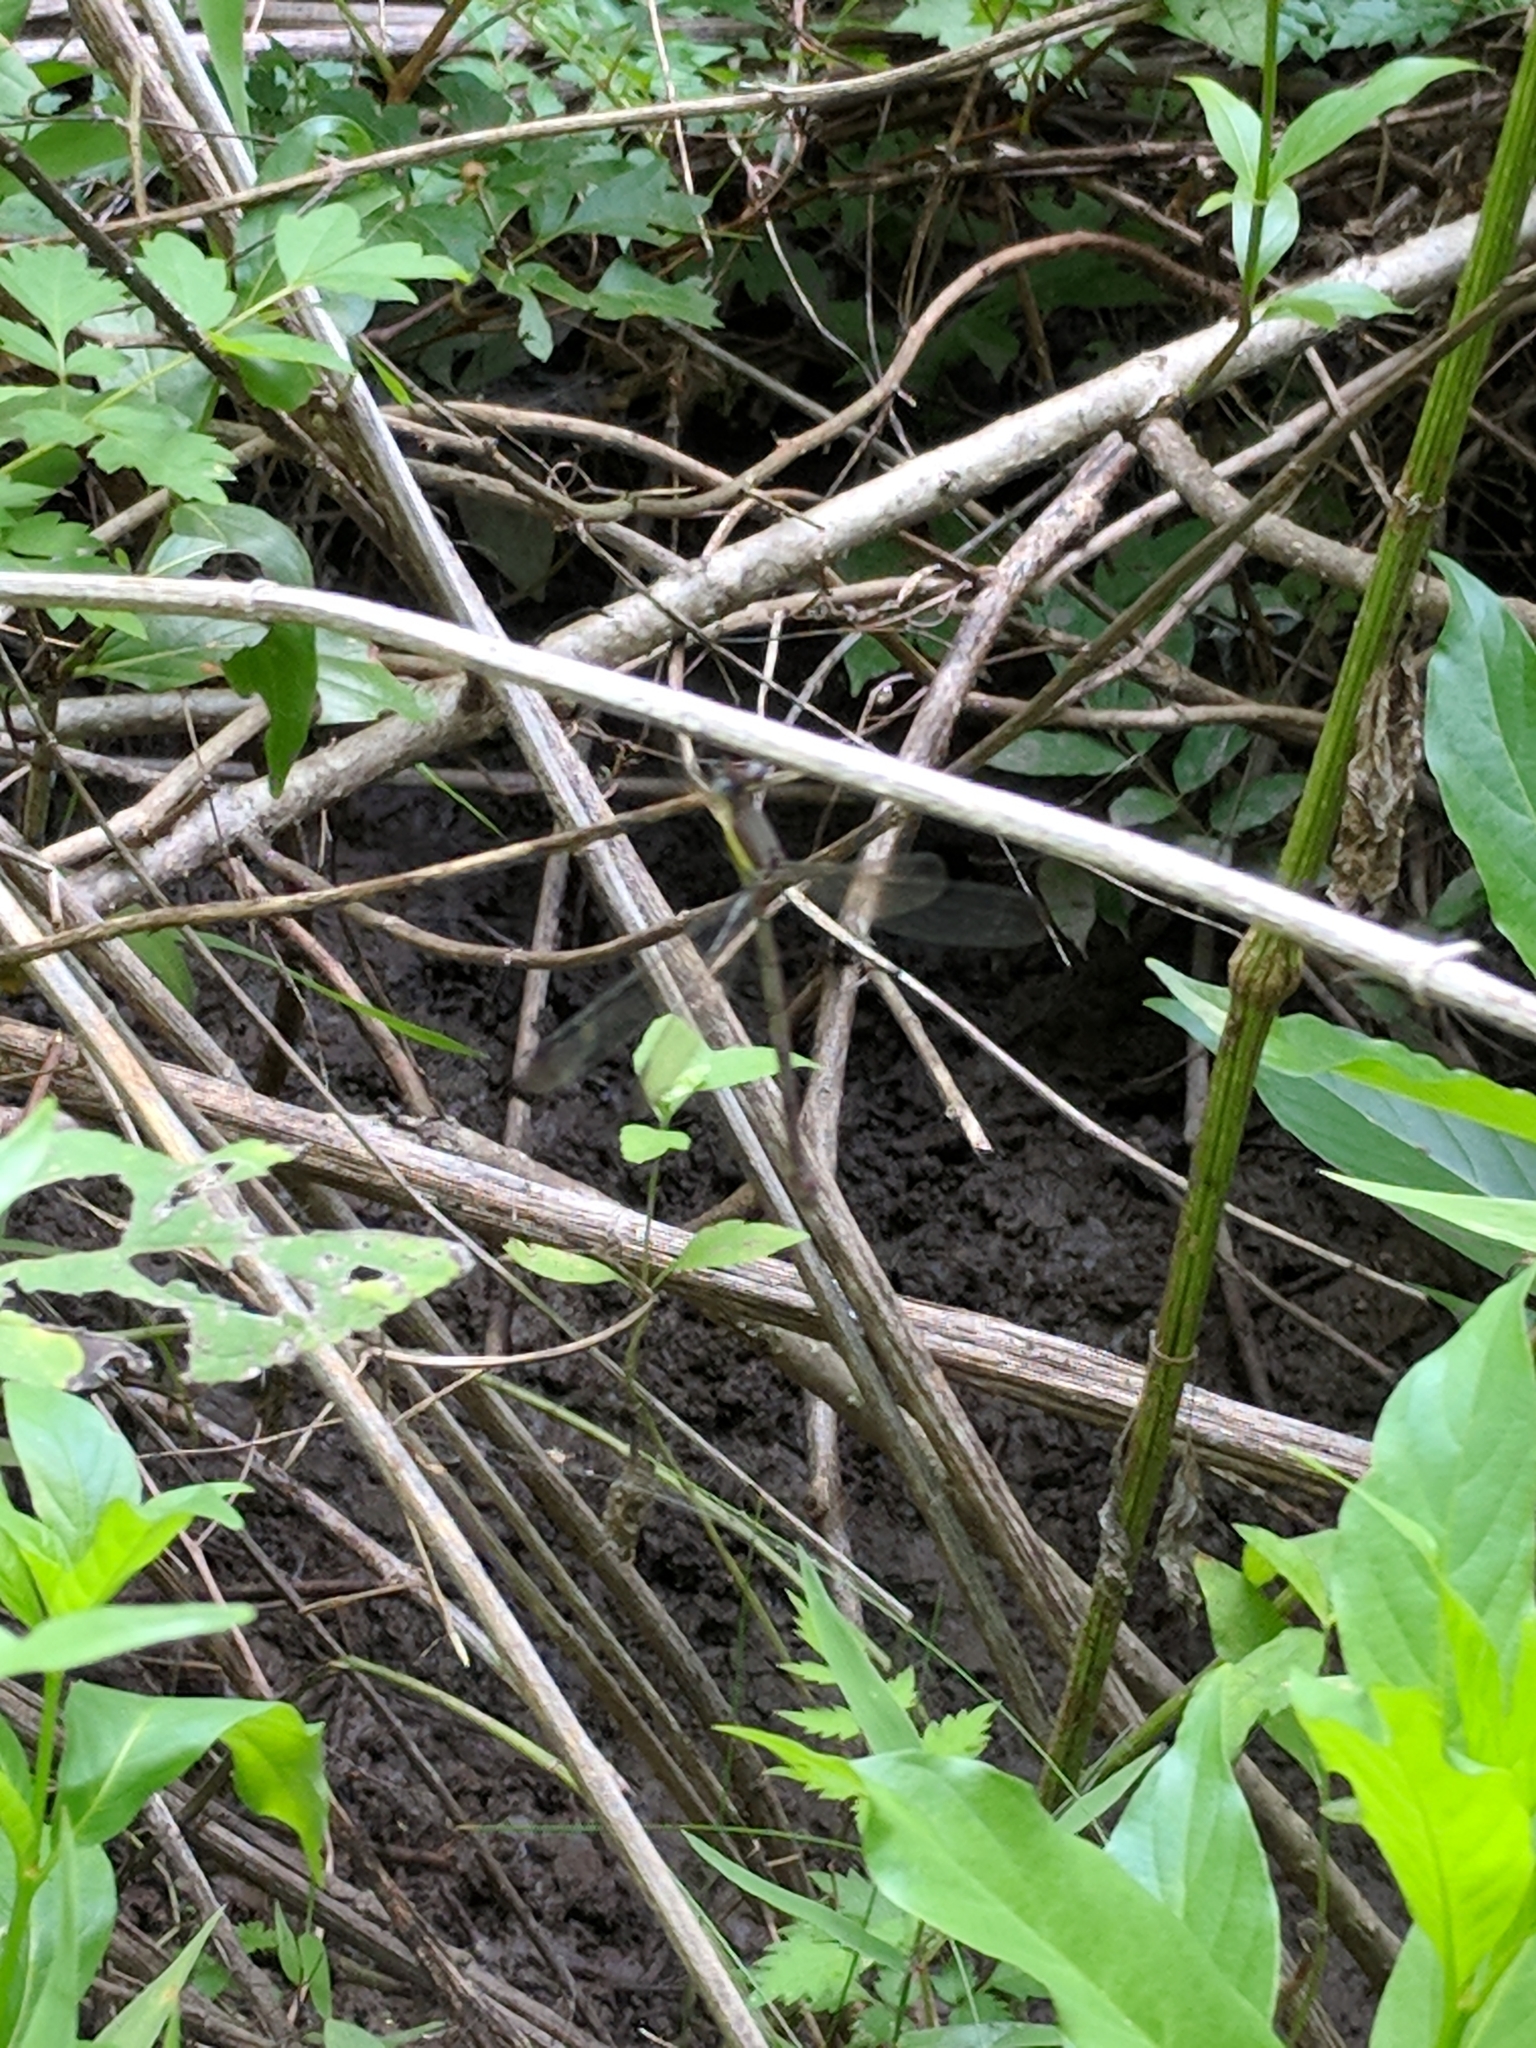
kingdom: Animalia
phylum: Arthropoda
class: Insecta
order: Odonata
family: Lestidae
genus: Archilestes
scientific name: Archilestes grandis
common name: Great spreadwing
